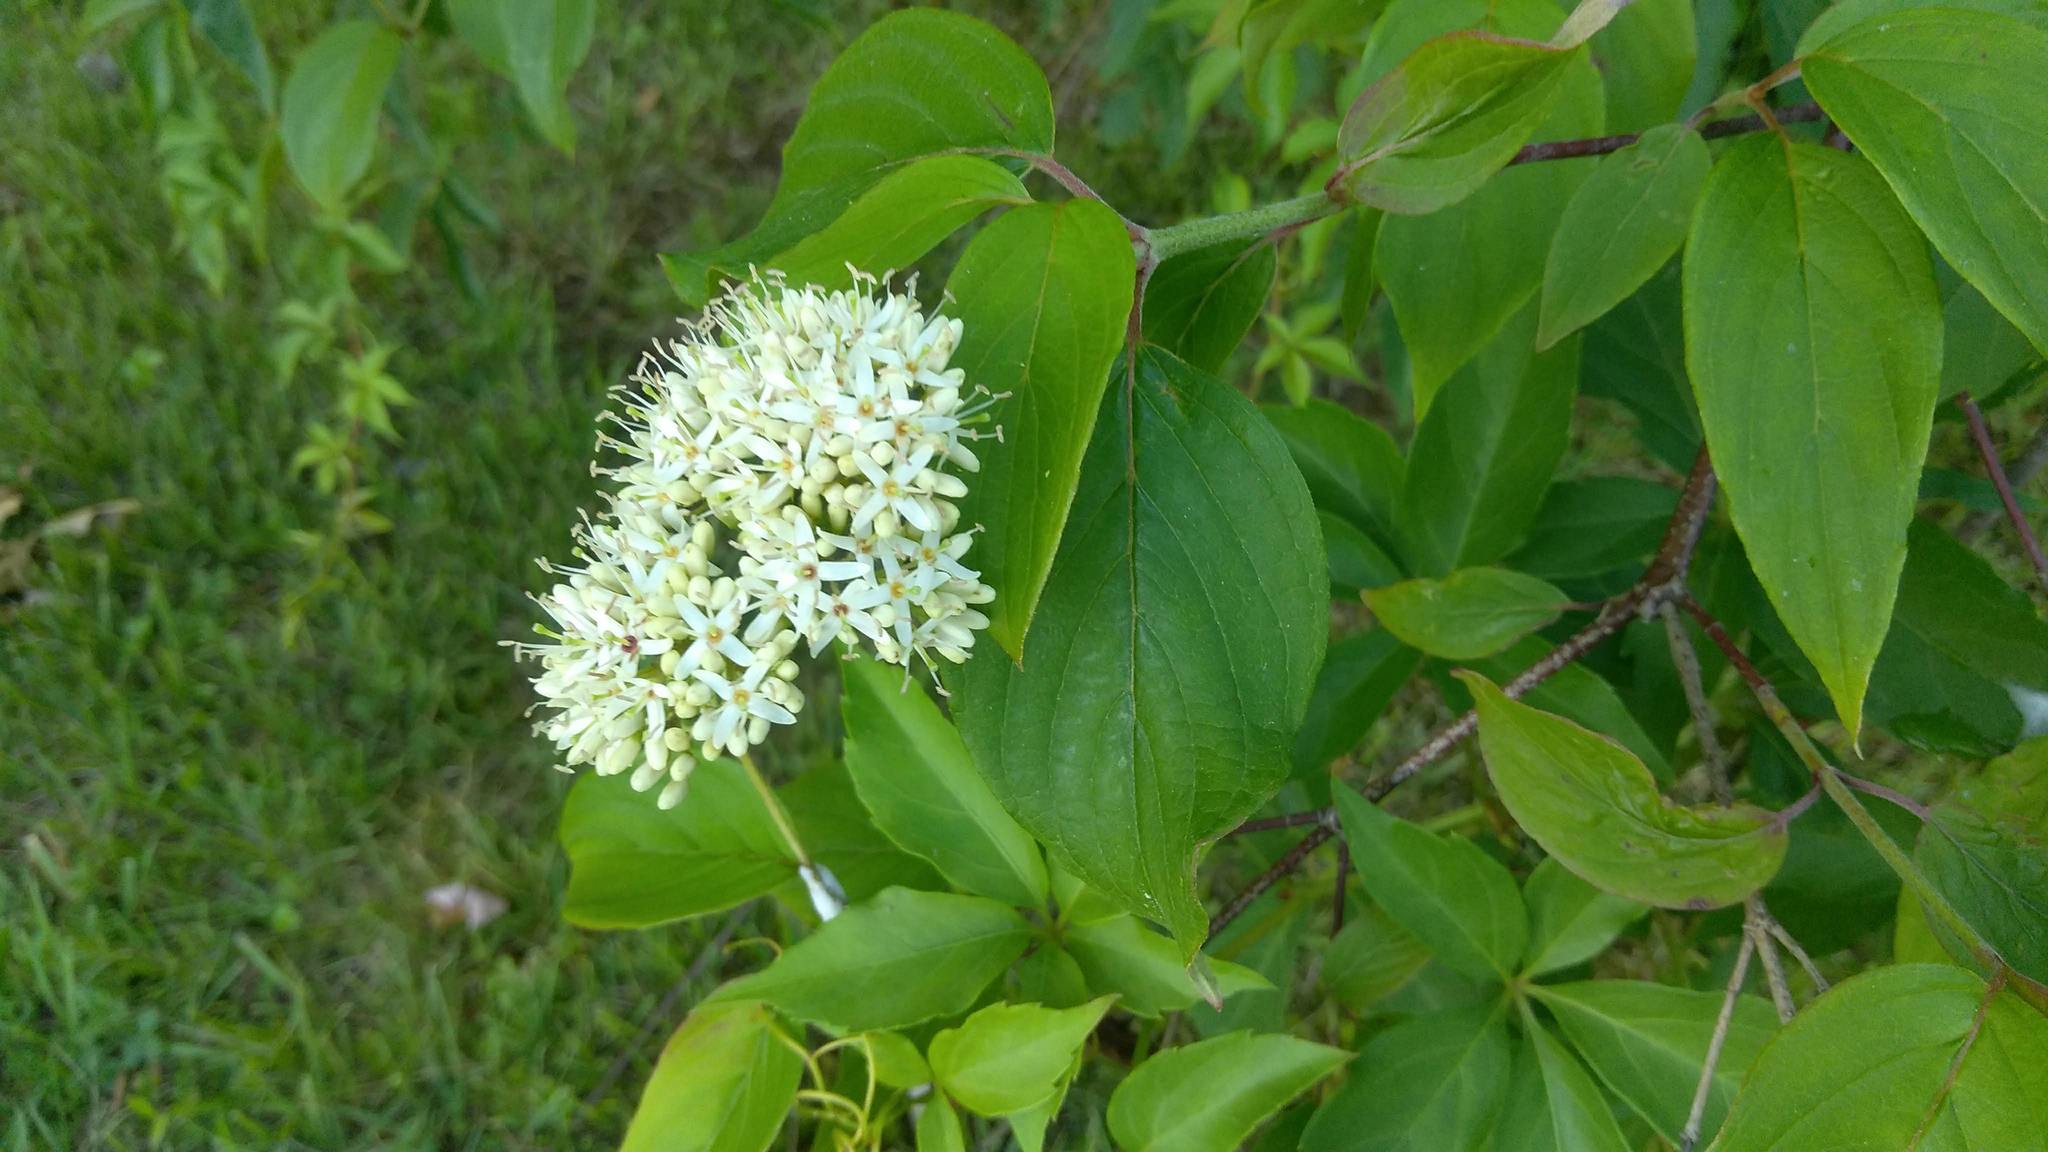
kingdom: Plantae
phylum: Tracheophyta
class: Magnoliopsida
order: Cornales
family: Cornaceae
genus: Cornus
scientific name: Cornus amomum
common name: Silky dogwood
